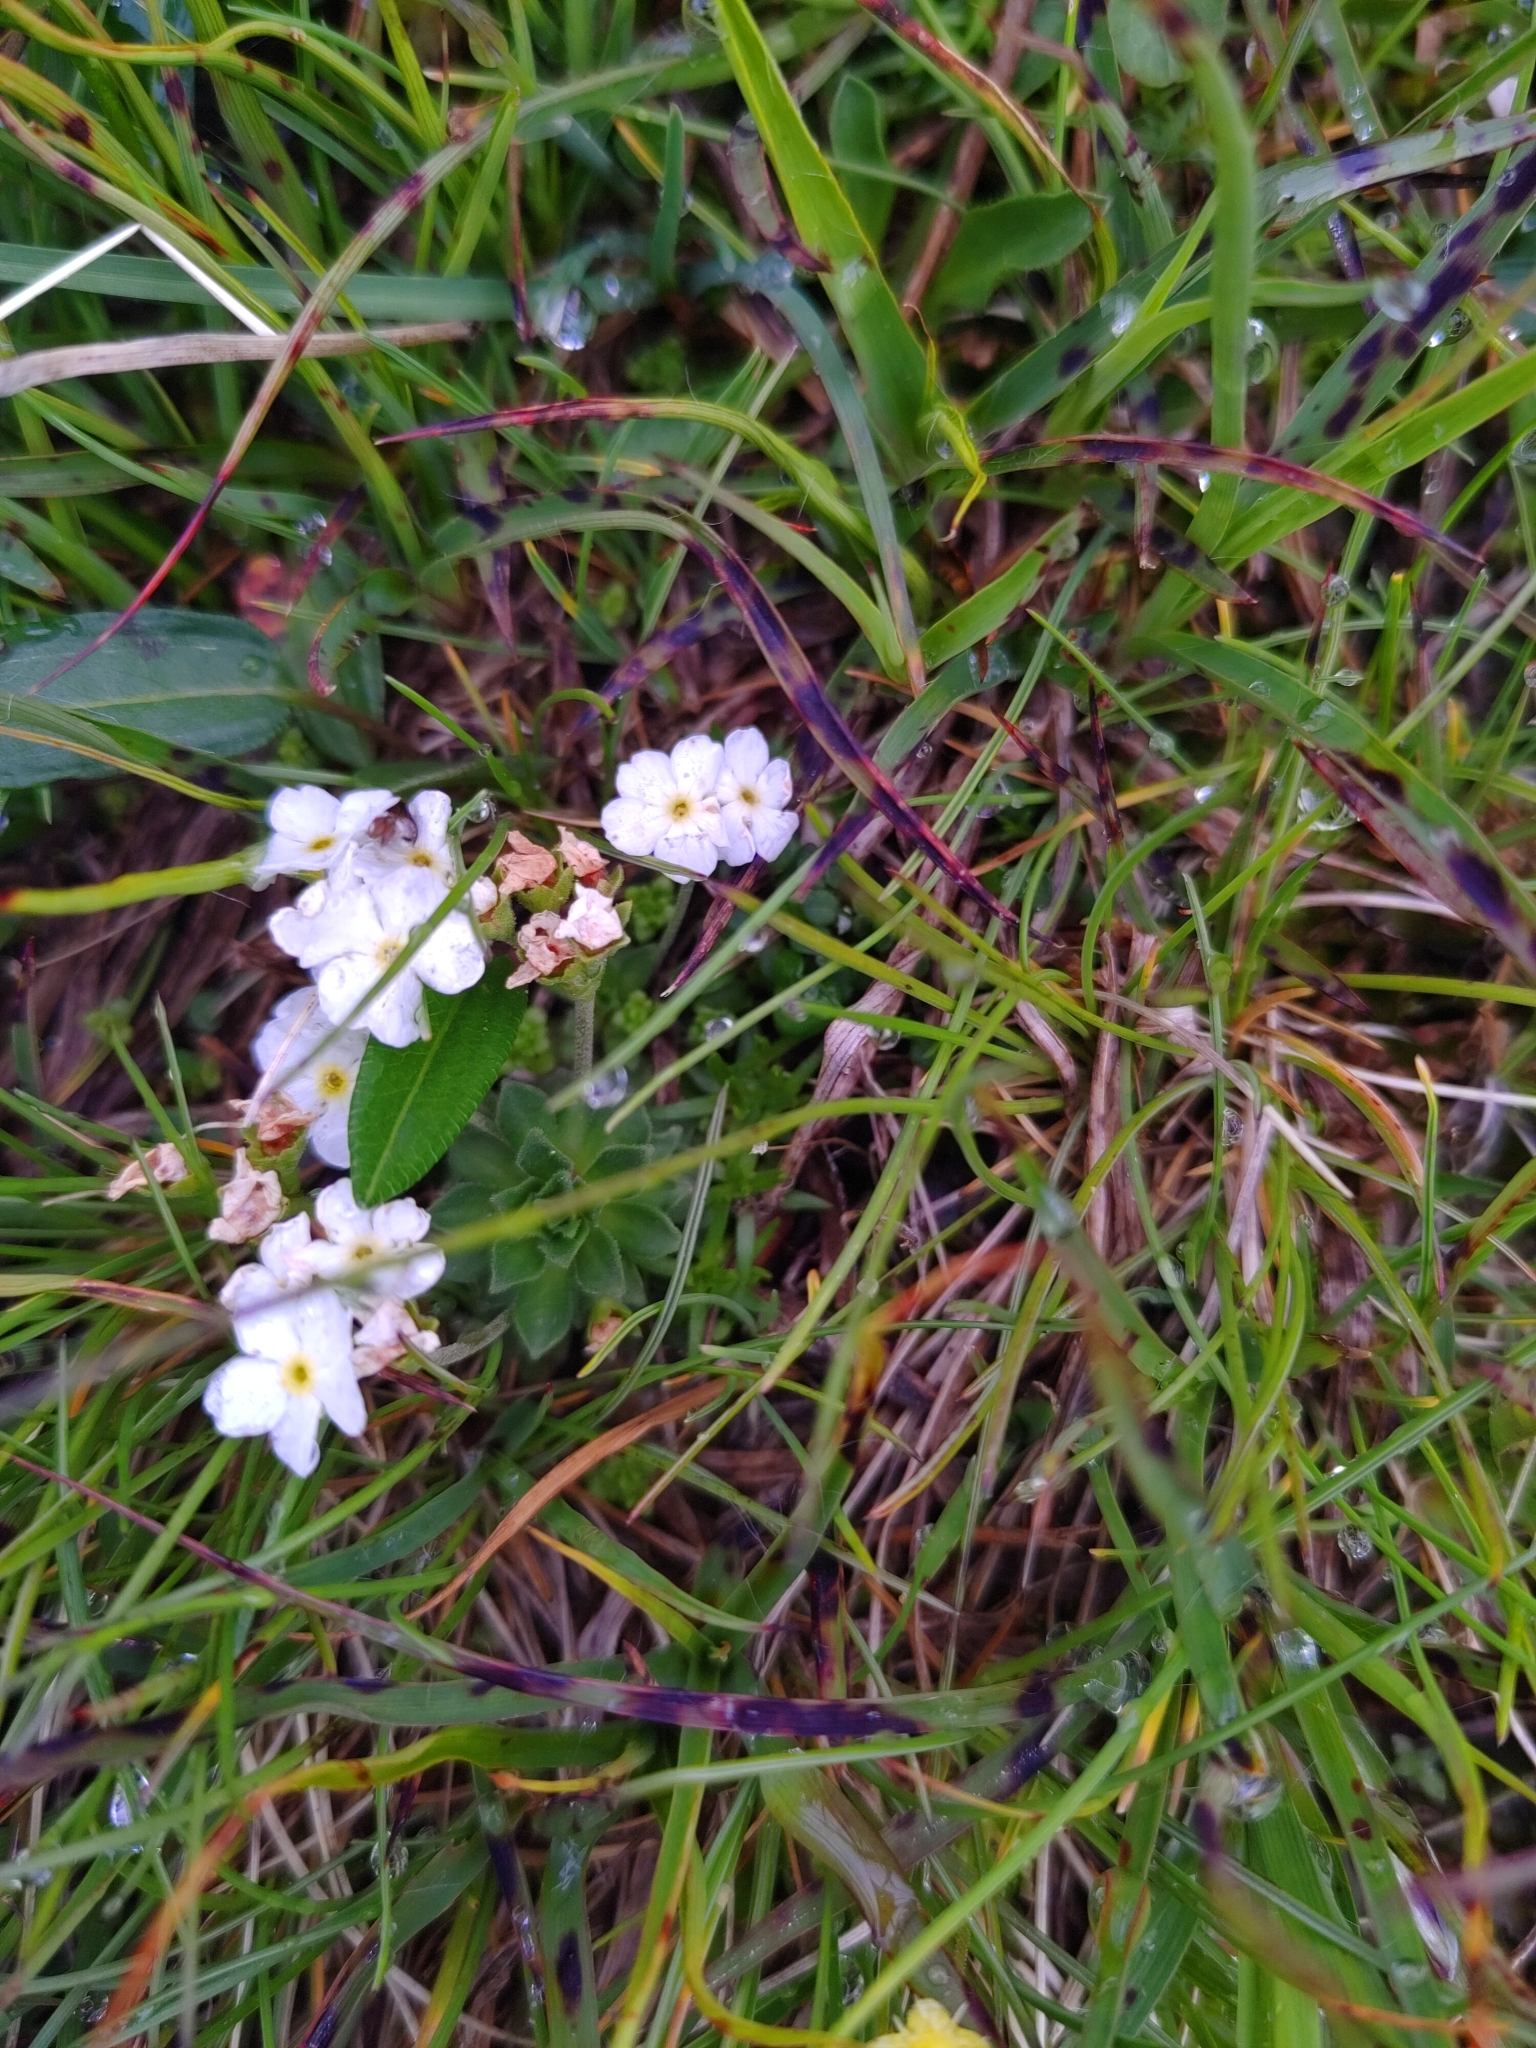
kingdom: Plantae
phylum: Tracheophyta
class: Magnoliopsida
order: Ericales
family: Primulaceae
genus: Androsace
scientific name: Androsace obtusifolia
